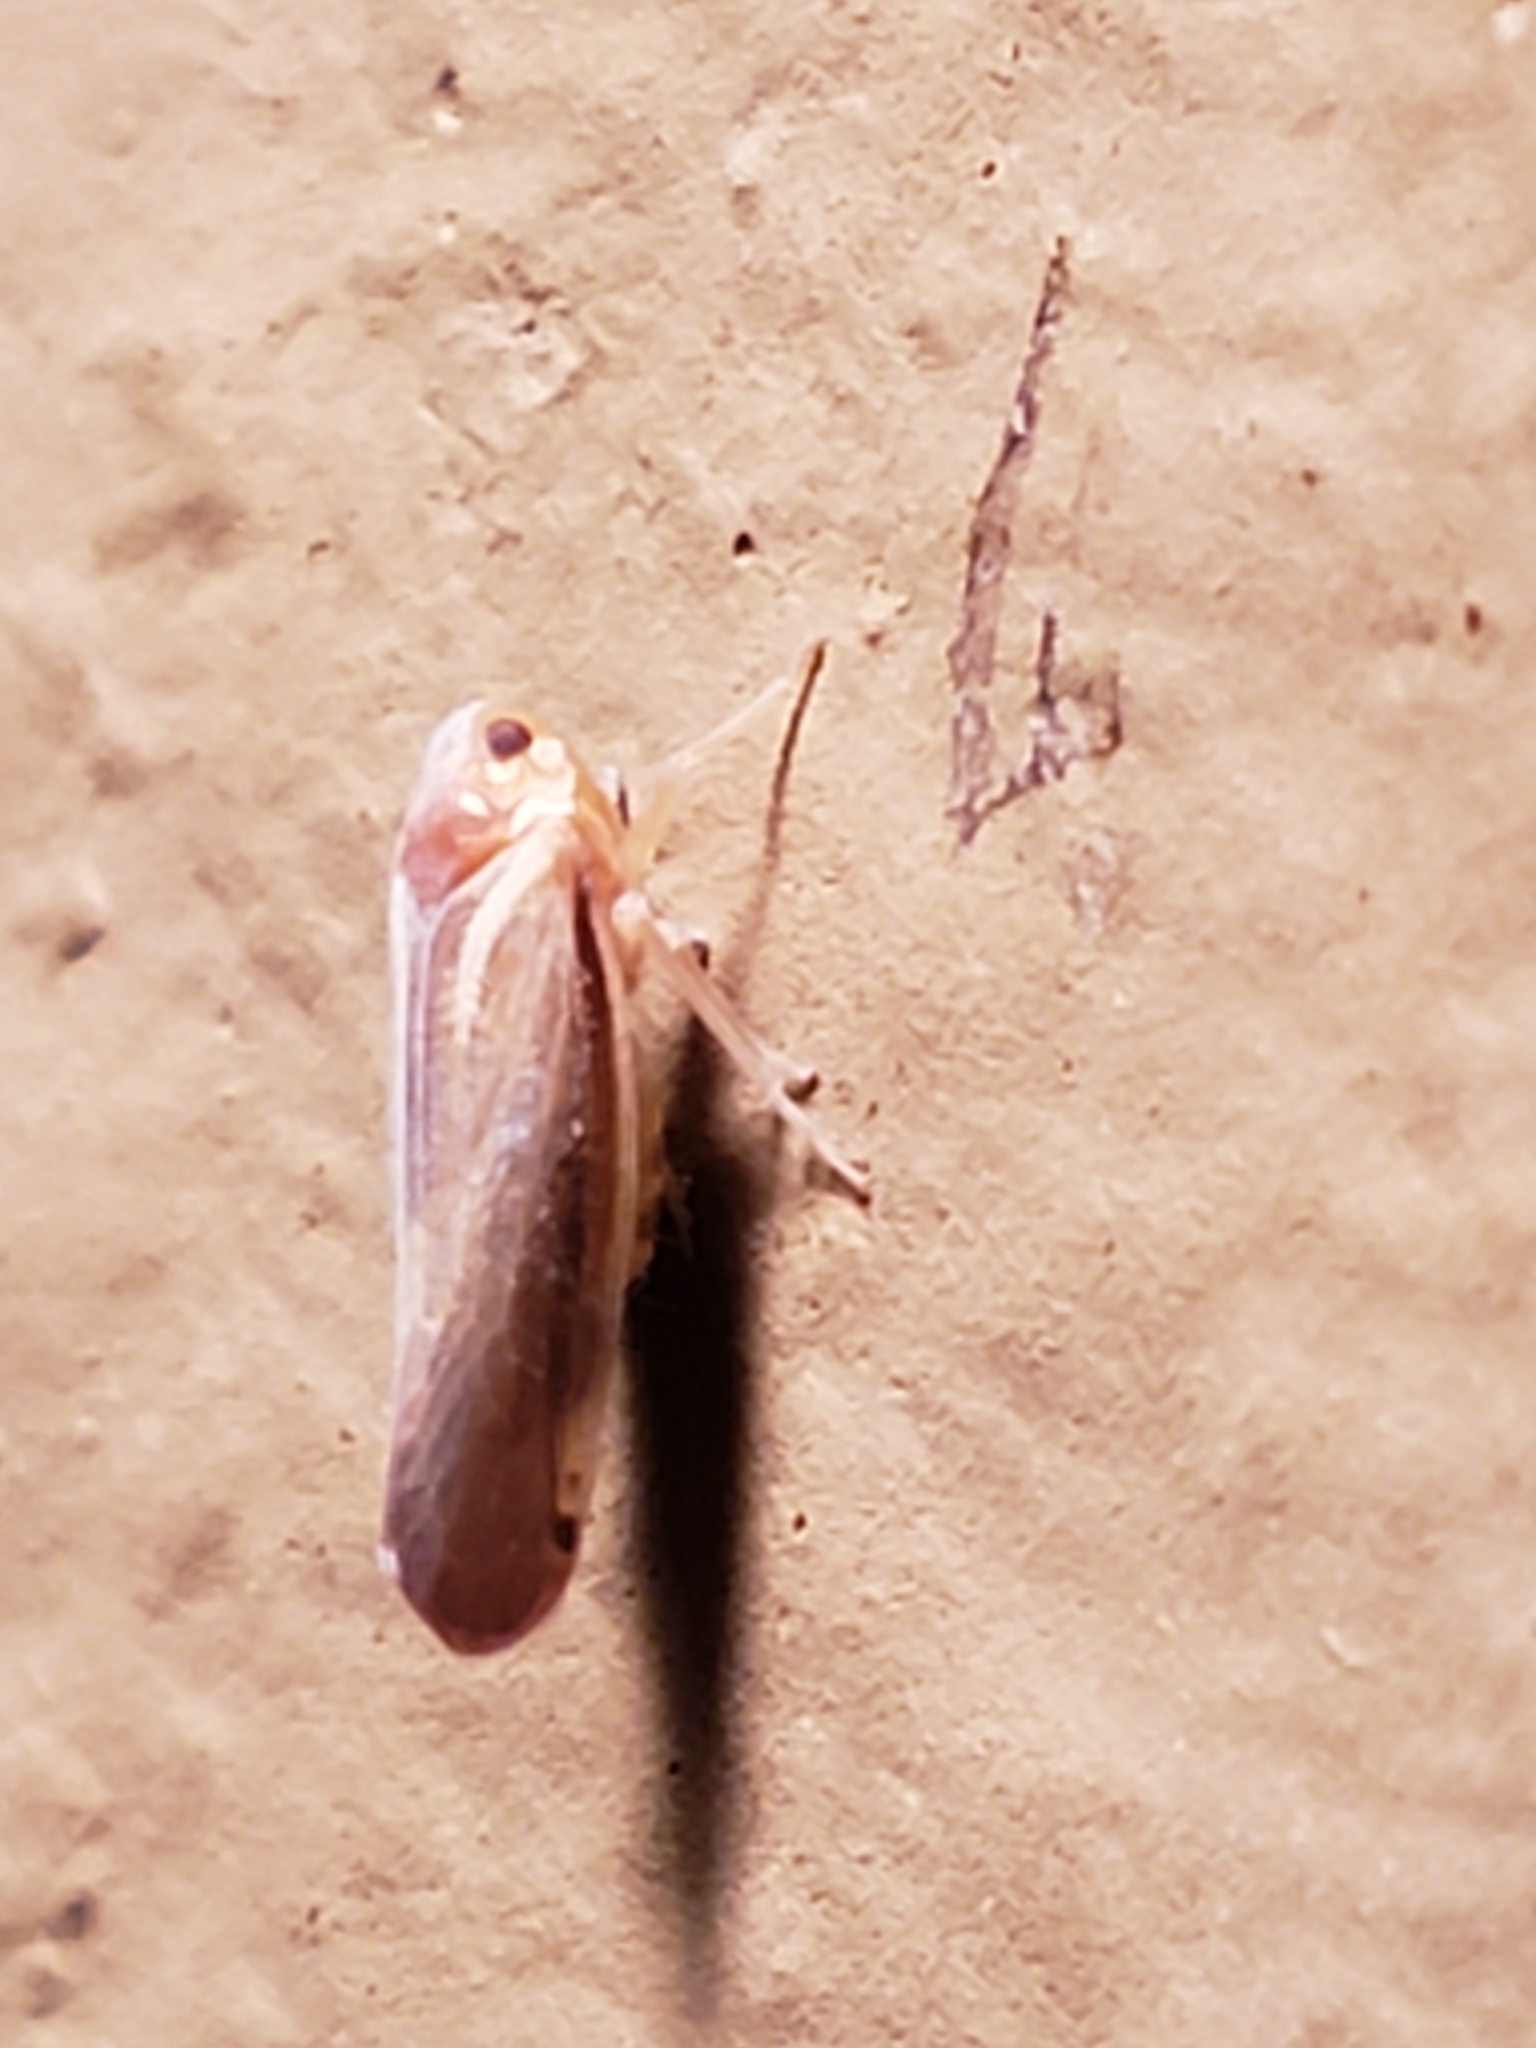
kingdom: Animalia
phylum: Arthropoda
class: Insecta
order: Hemiptera
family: Derbidae
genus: Omolicna
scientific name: Omolicna uhleri
